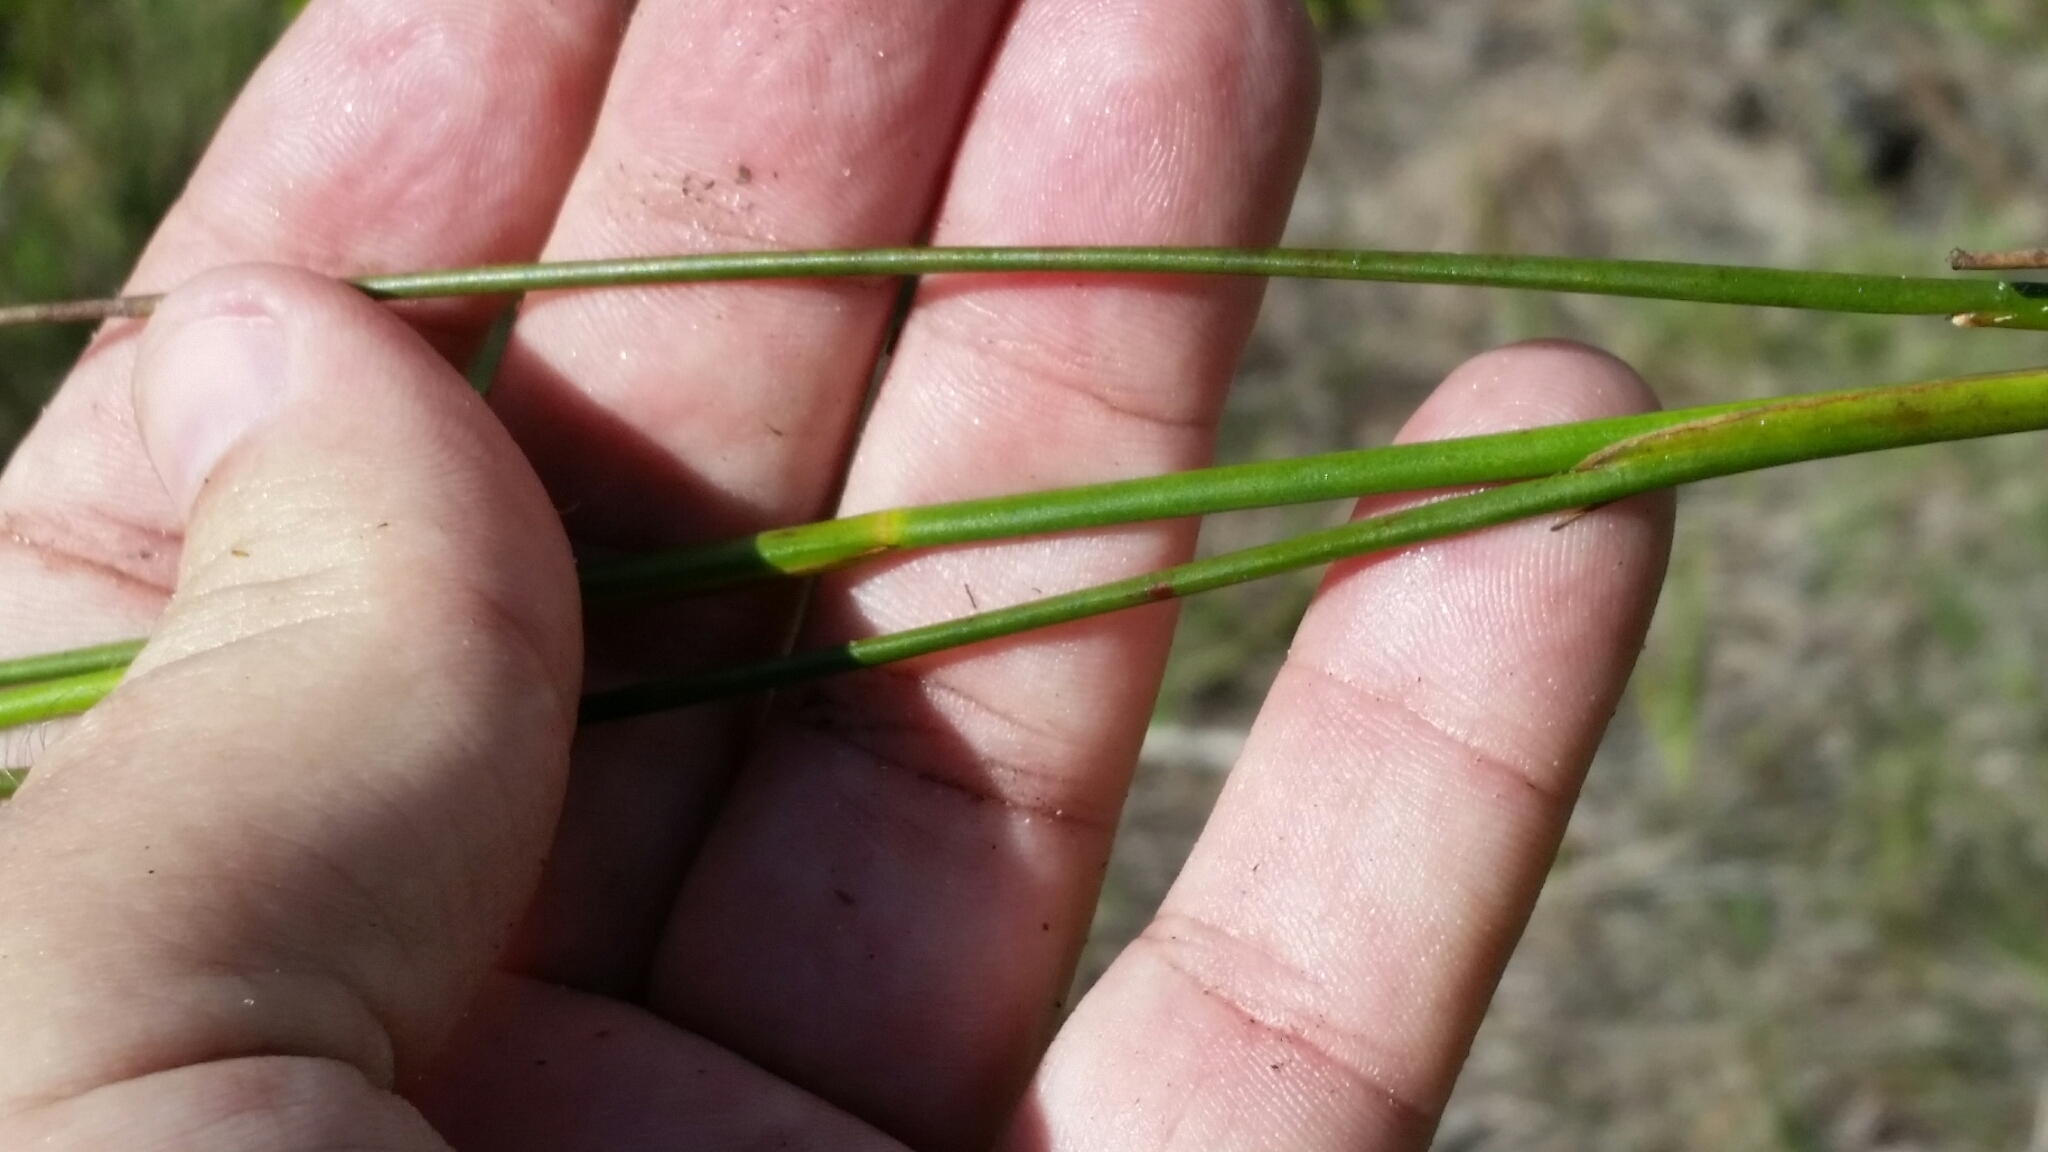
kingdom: Plantae
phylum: Tracheophyta
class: Liliopsida
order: Poales
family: Juncaceae
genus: Juncus
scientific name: Juncus scirpoides
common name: Needlepod rush
